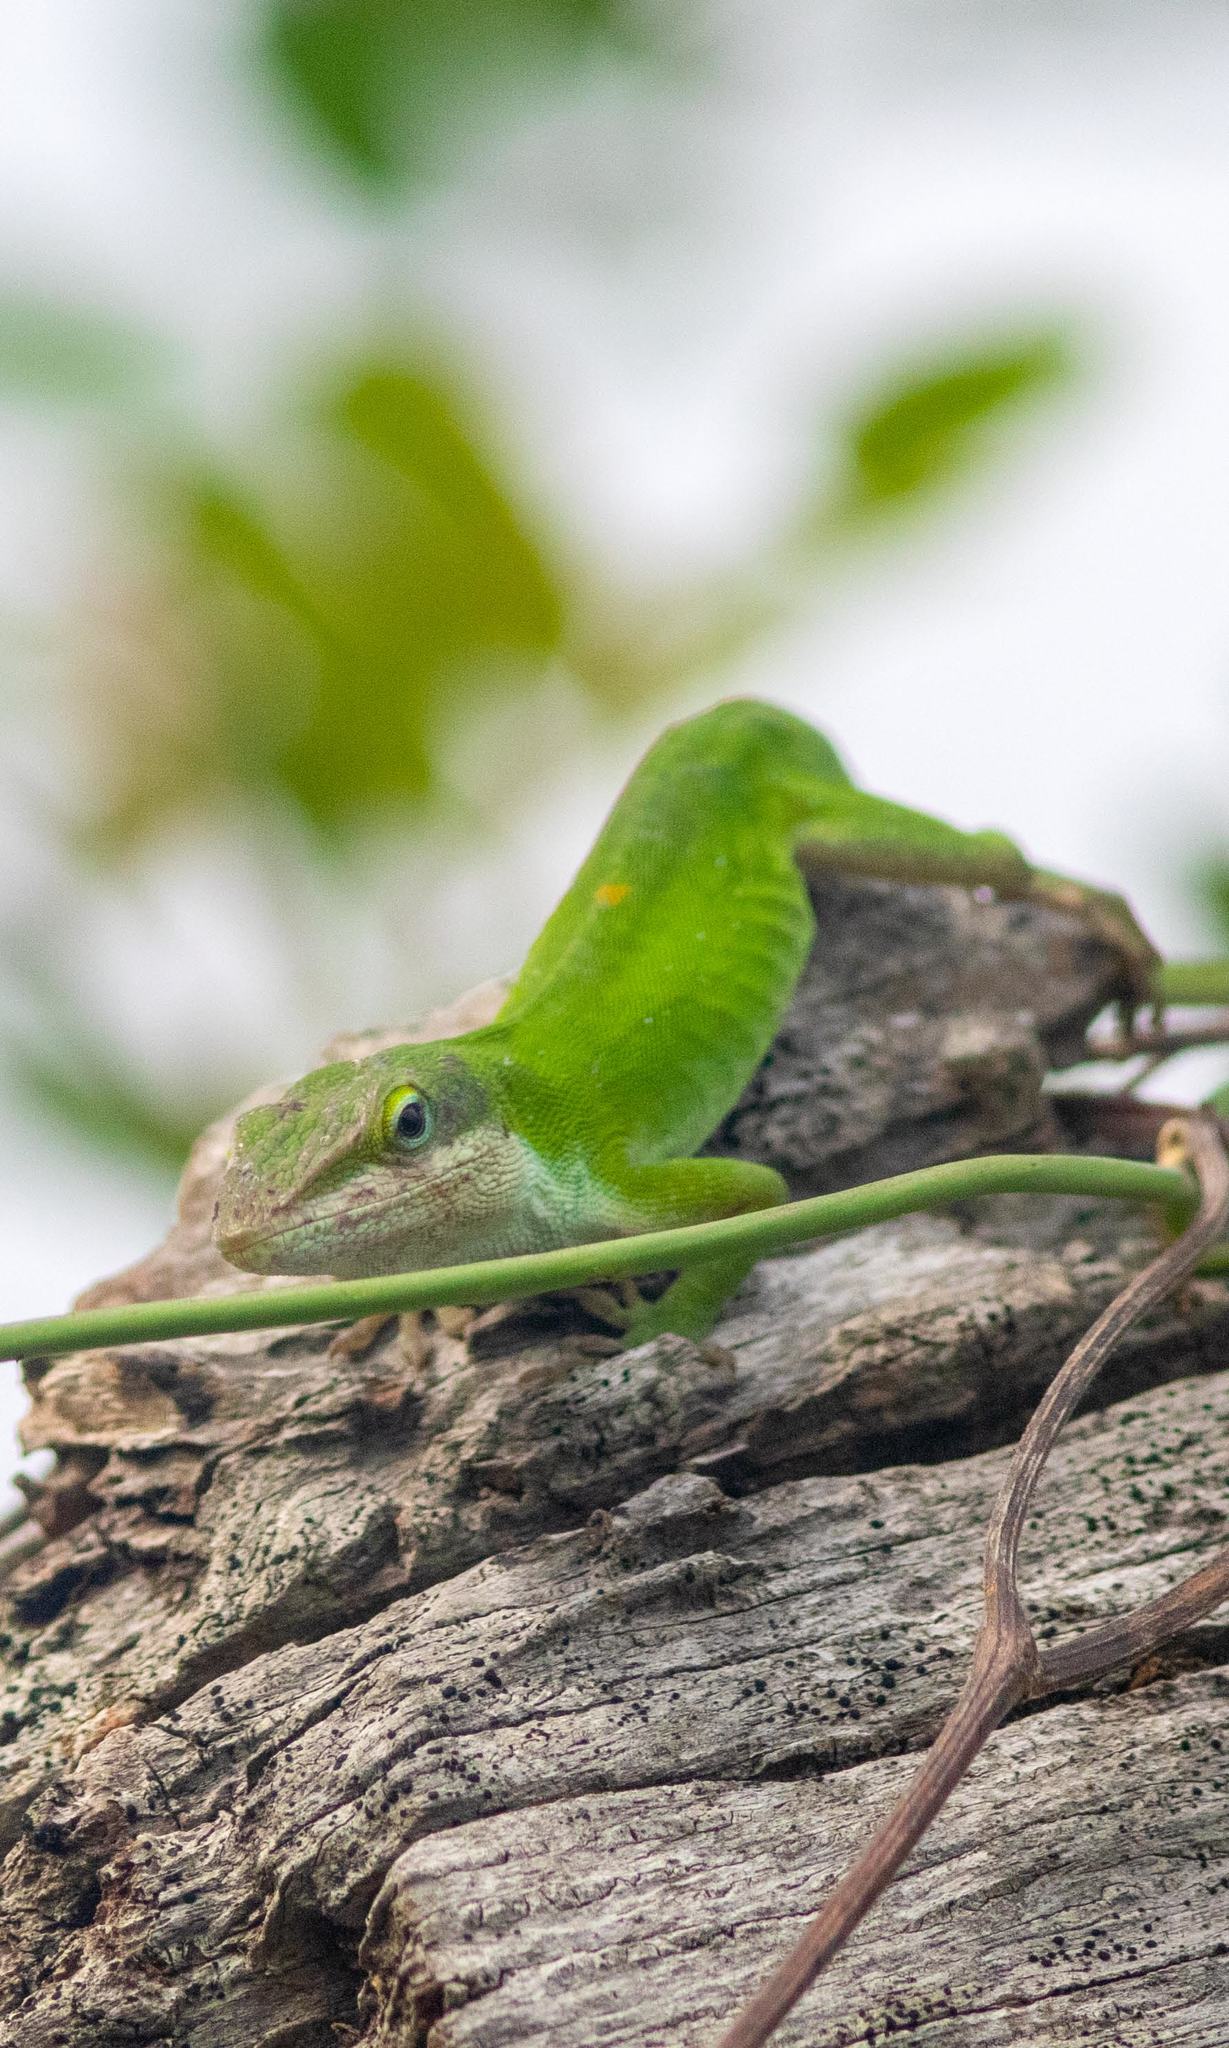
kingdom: Animalia
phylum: Chordata
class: Squamata
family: Dactyloidae
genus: Anolis
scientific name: Anolis carolinensis
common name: Green anole
